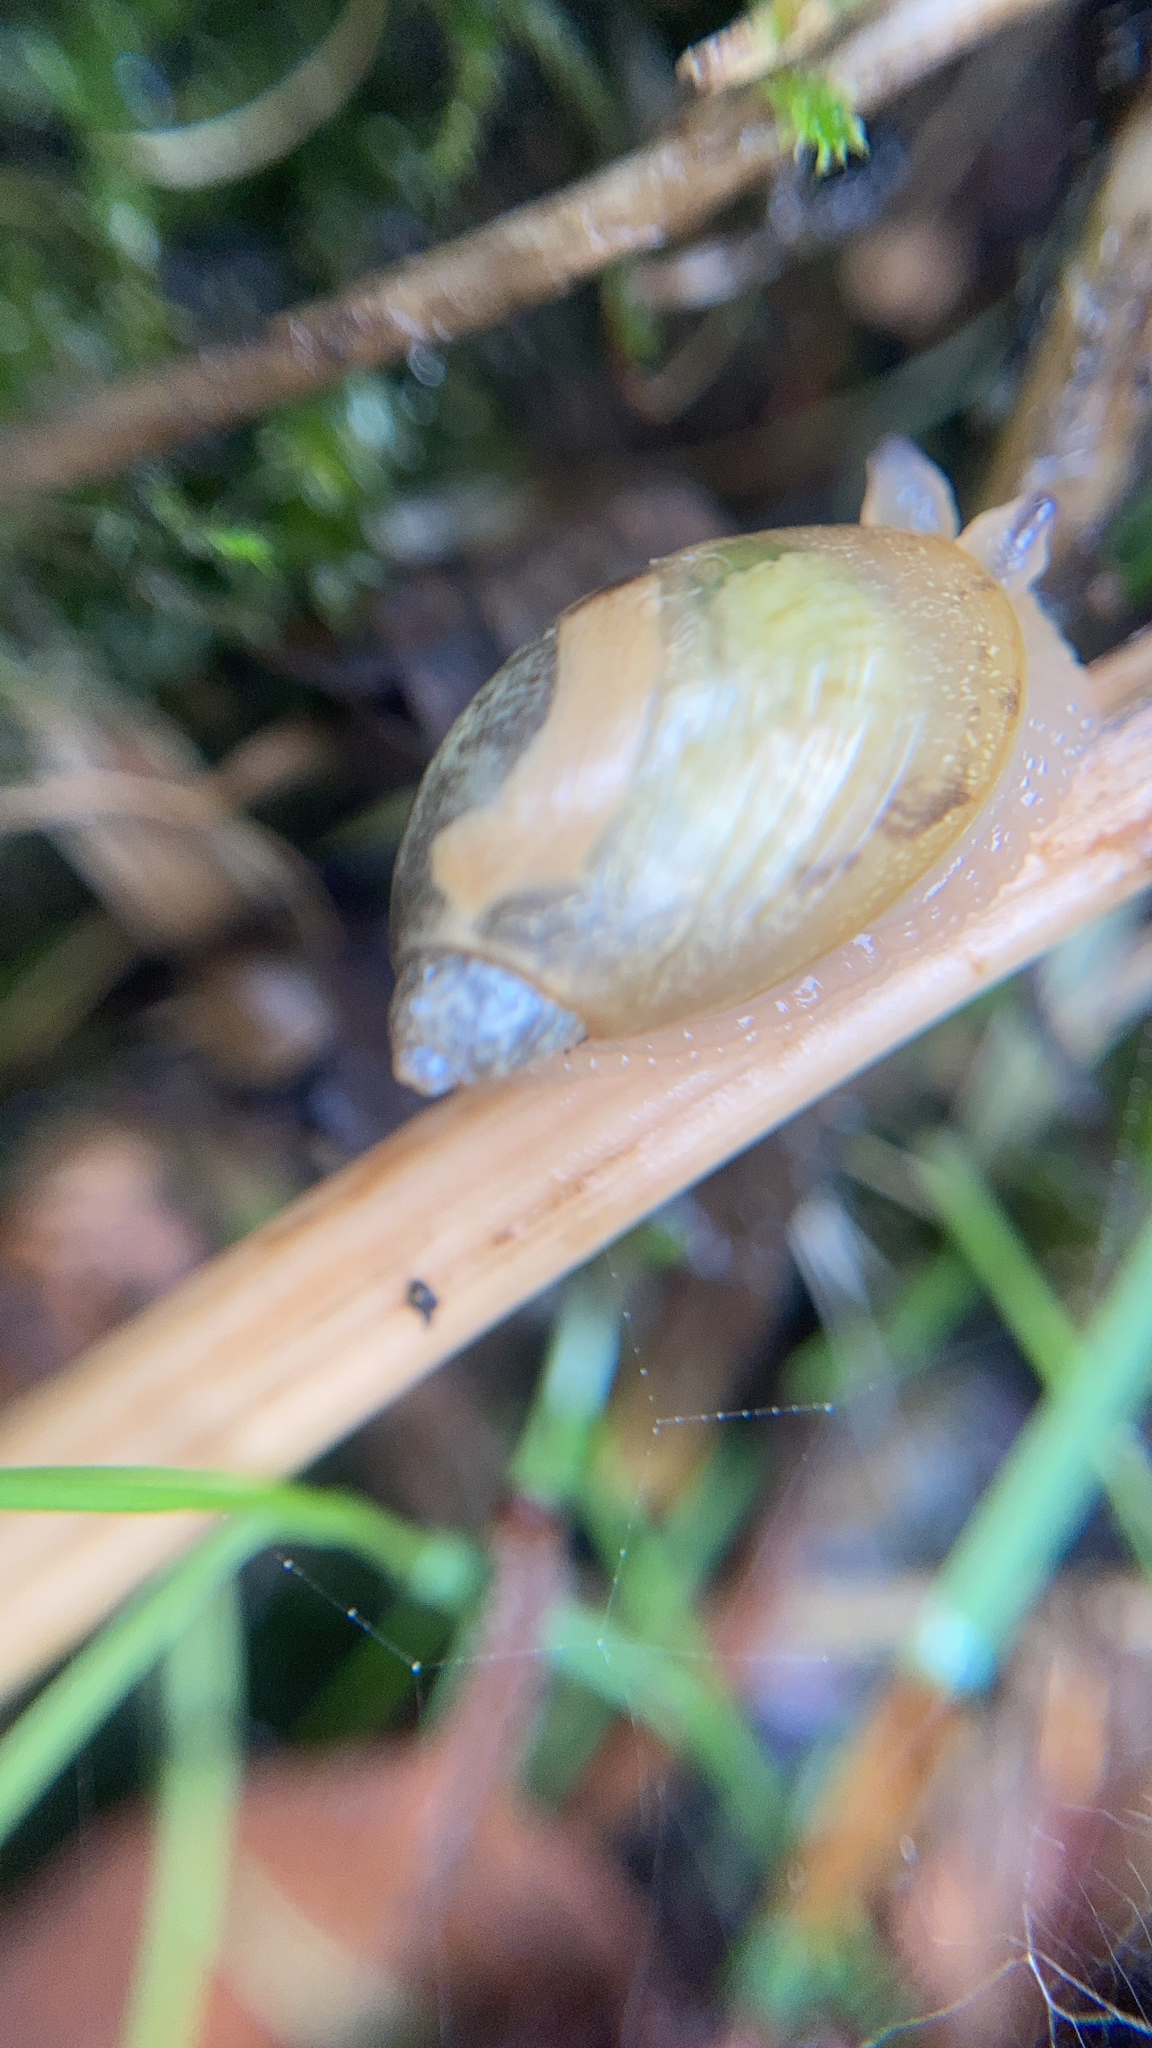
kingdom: Animalia
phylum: Mollusca
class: Gastropoda
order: Stylommatophora
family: Succineidae
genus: Succinea
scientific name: Succinea putris
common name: European ambersnail
